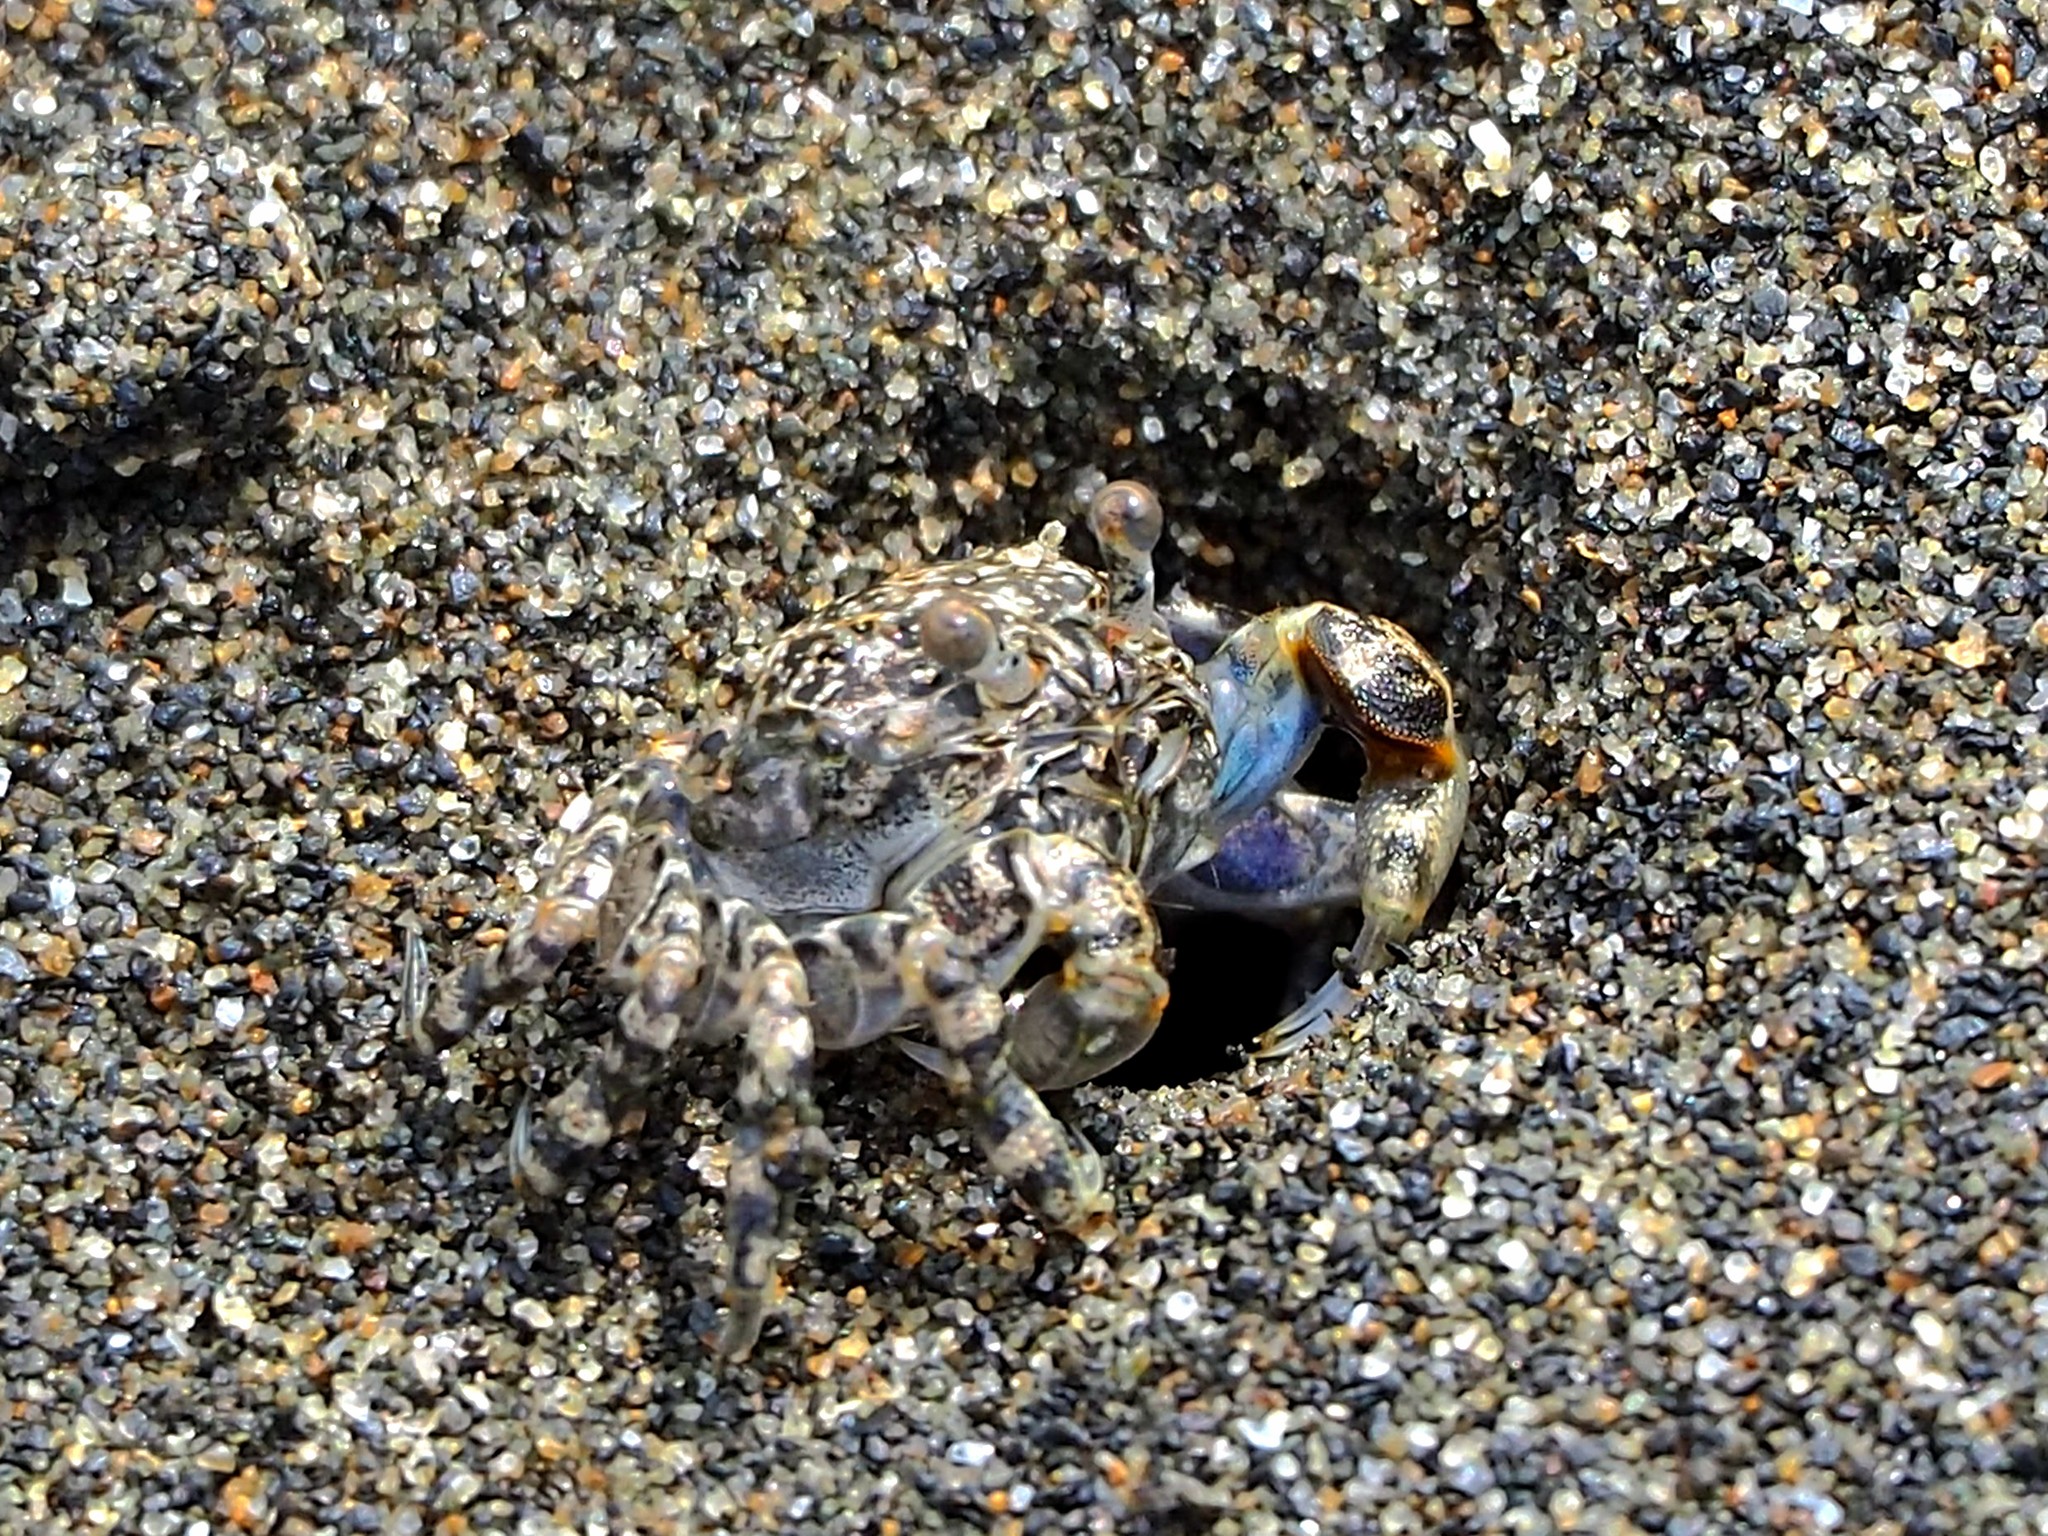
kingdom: Animalia
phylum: Arthropoda
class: Malacostraca
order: Decapoda
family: Dotillidae
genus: Scopimera
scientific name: Scopimera bitympana
